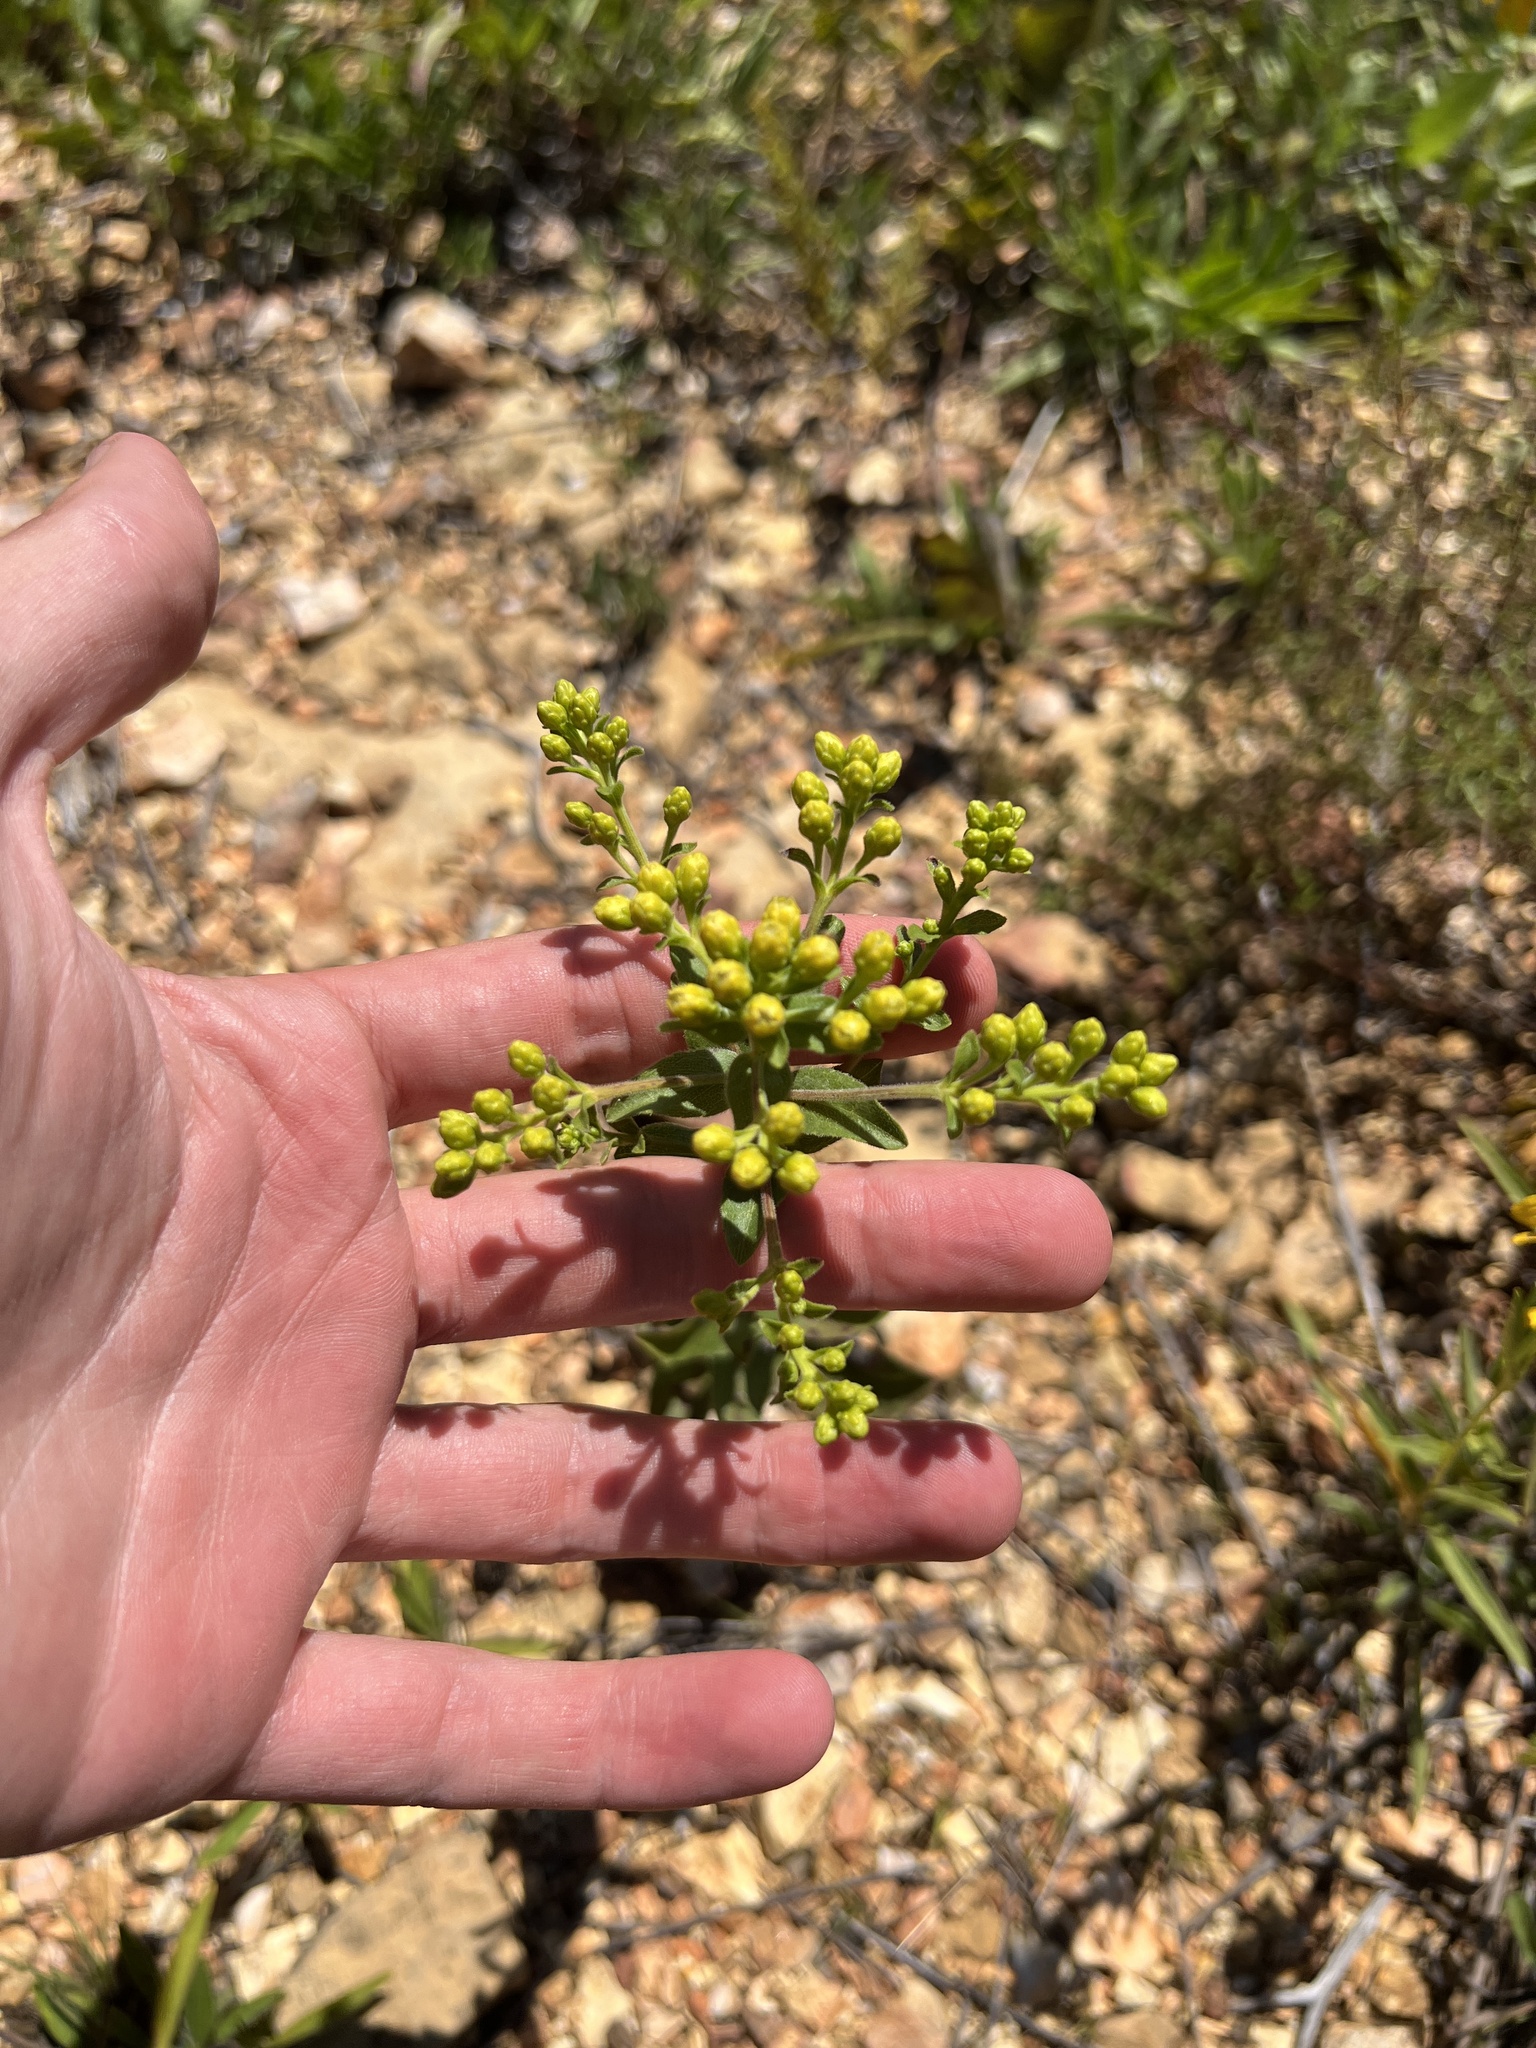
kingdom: Plantae
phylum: Tracheophyta
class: Magnoliopsida
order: Asterales
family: Asteraceae
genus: Solidago
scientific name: Solidago rigida
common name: Rigid goldenrod
